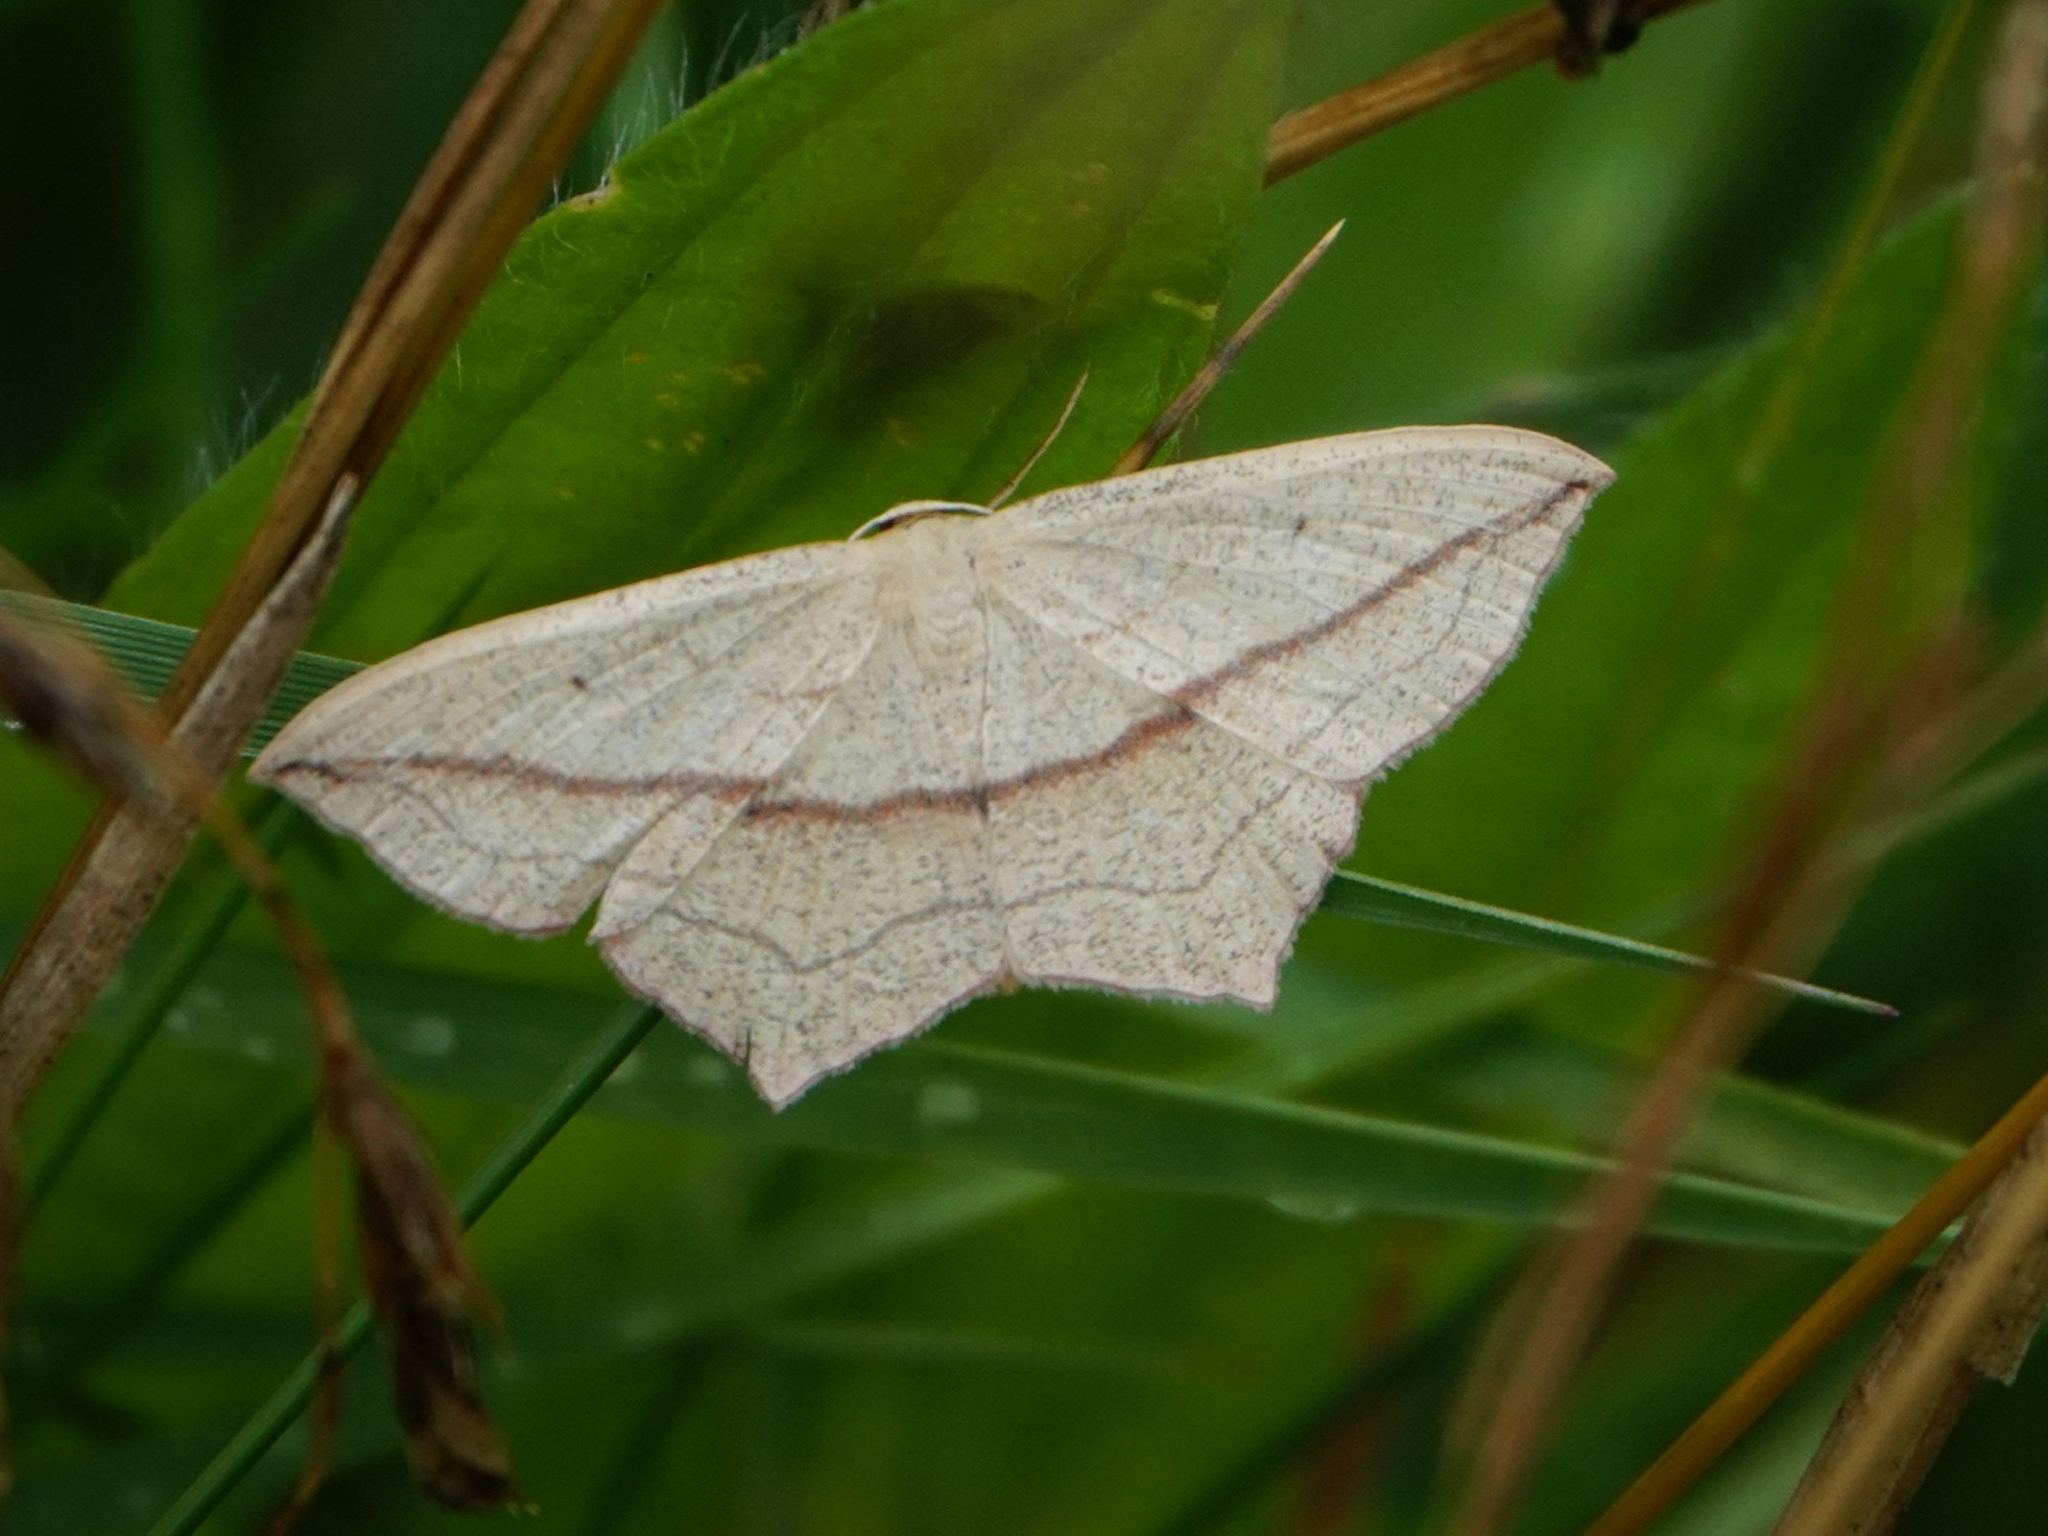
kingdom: Animalia
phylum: Arthropoda
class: Insecta
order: Lepidoptera
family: Geometridae
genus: Timandra
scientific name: Timandra comae
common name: Blood-vein
